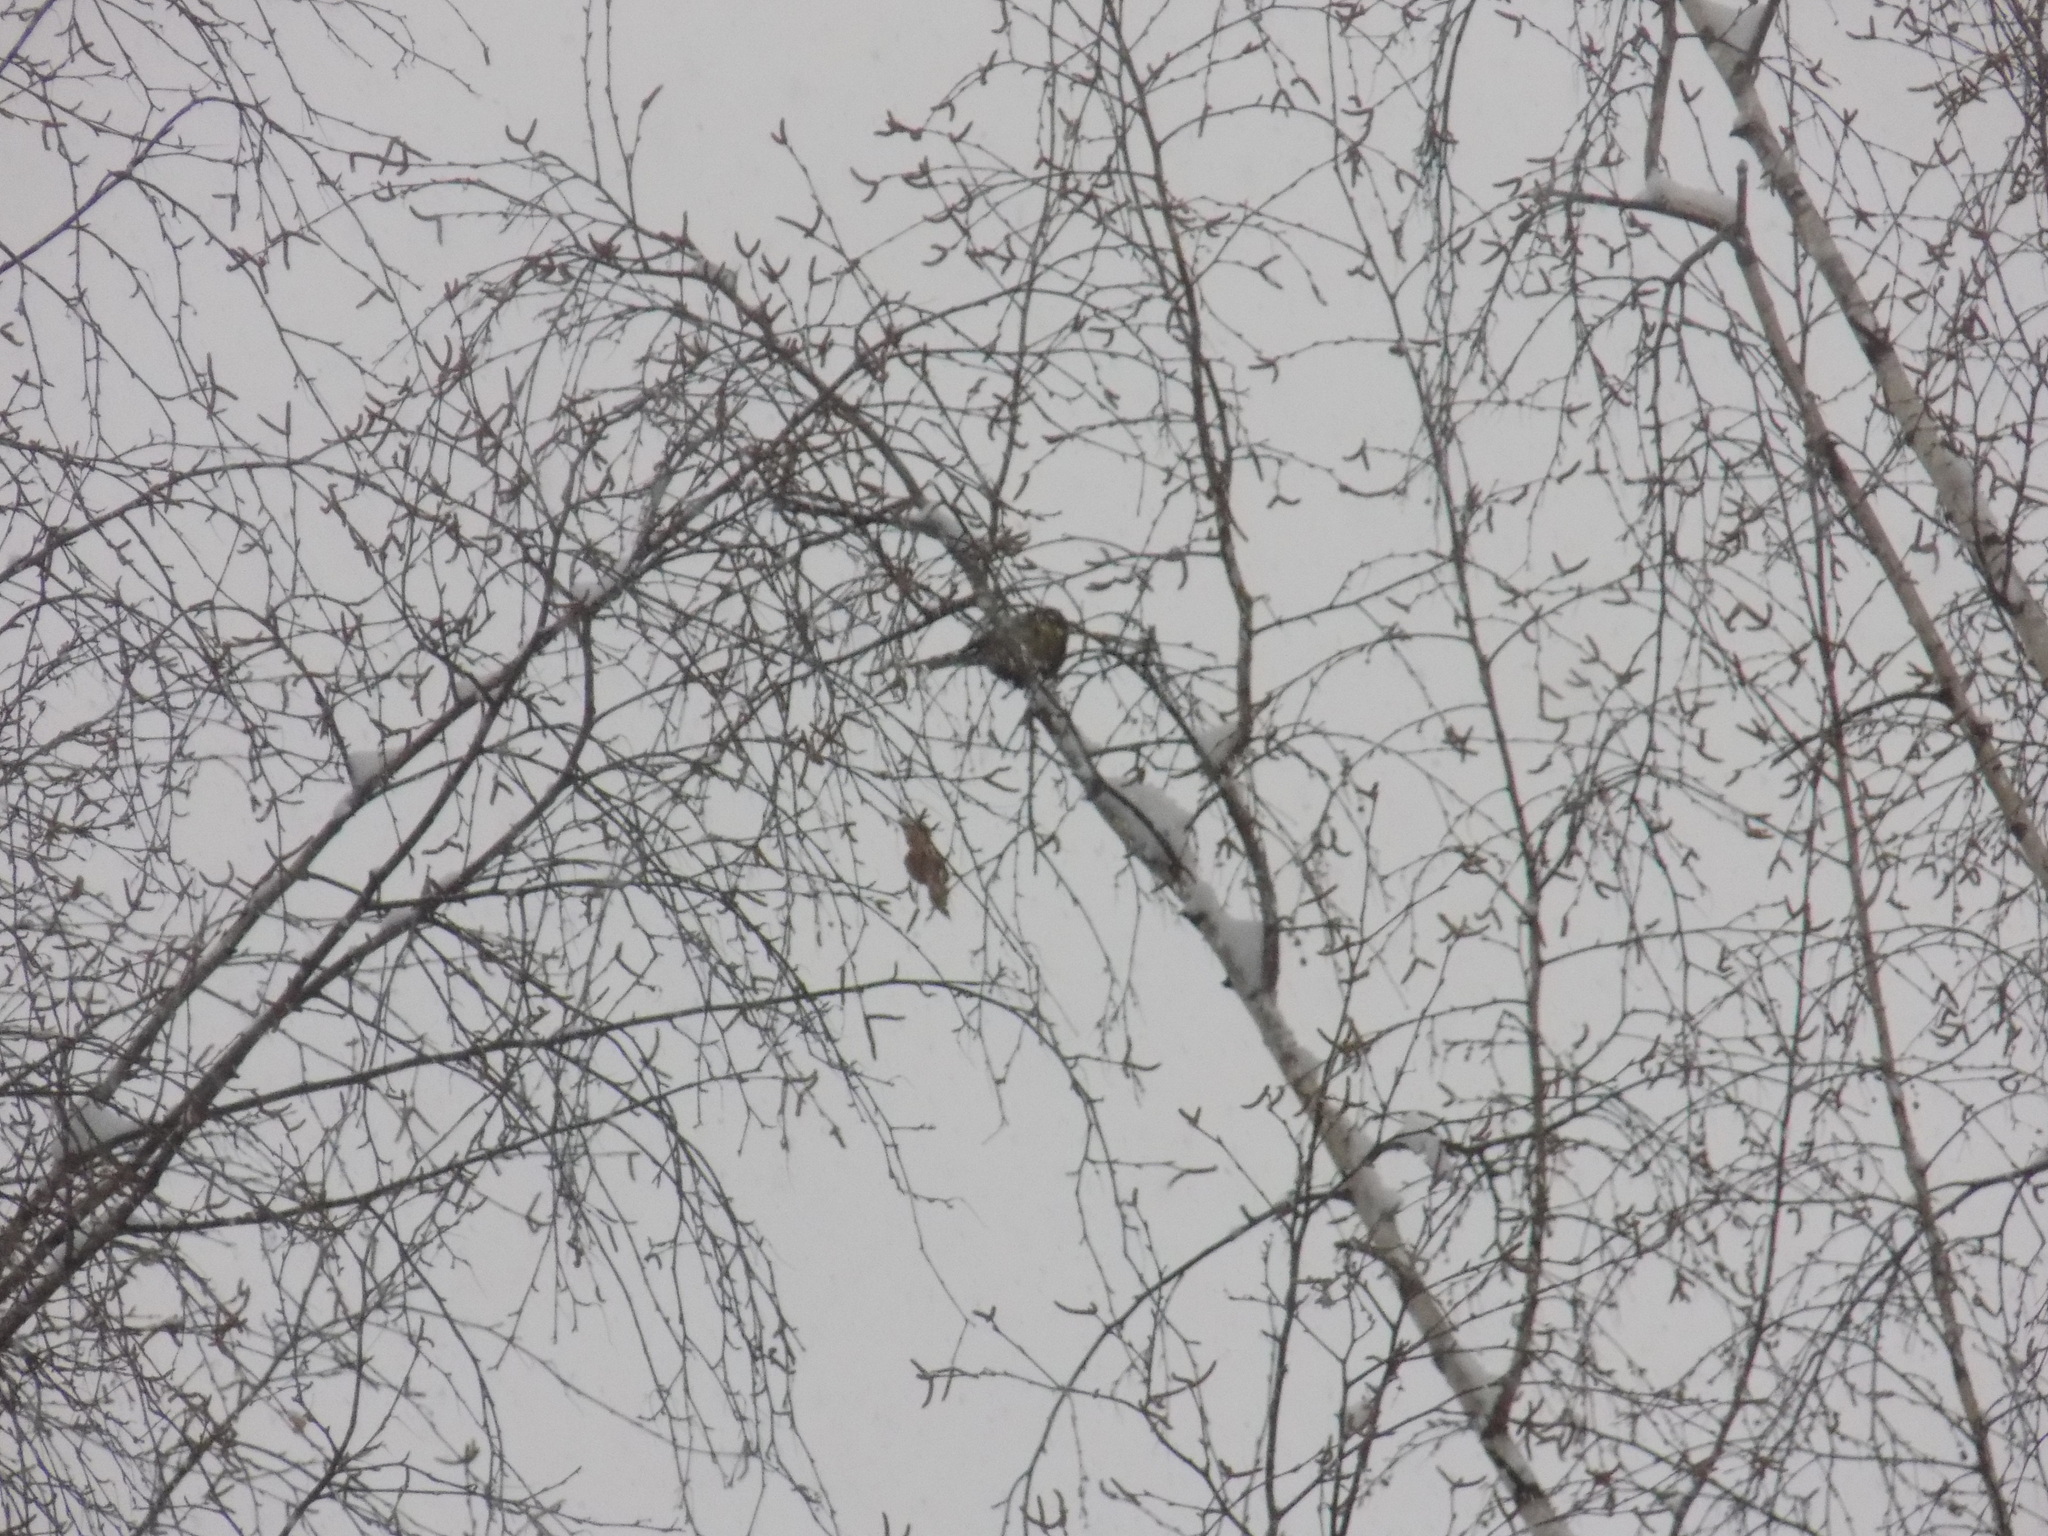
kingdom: Animalia
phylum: Chordata
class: Aves
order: Passeriformes
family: Paridae
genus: Parus
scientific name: Parus major
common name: Great tit
